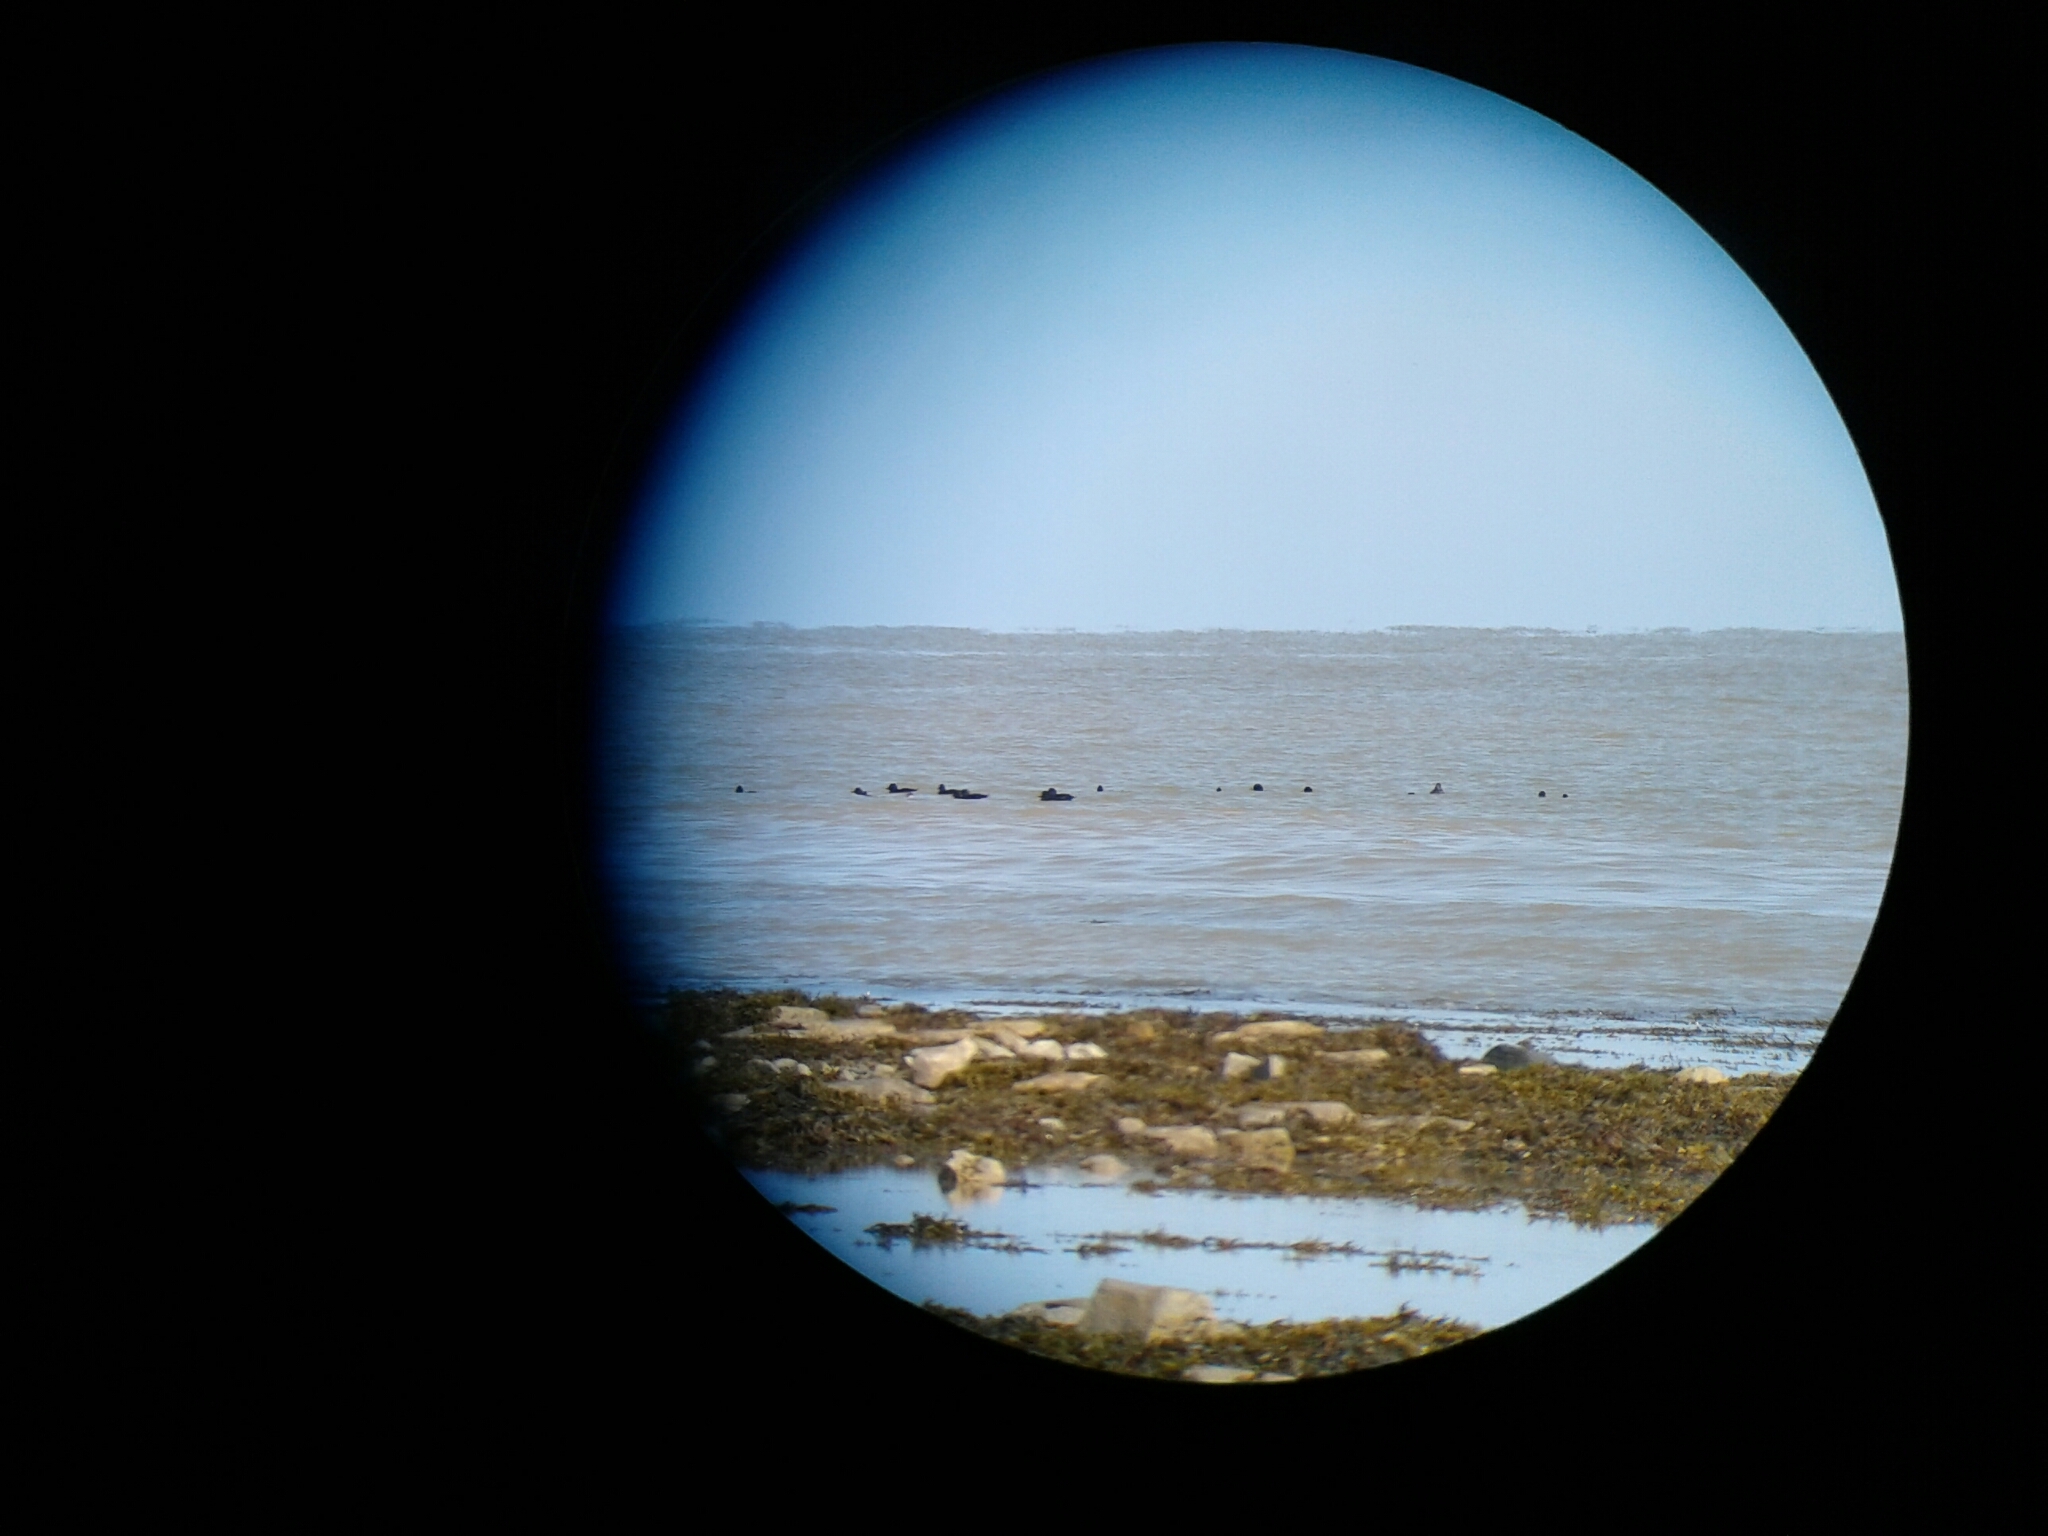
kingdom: Animalia
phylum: Chordata
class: Aves
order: Anseriformes
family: Anatidae
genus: Melanitta
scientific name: Melanitta americana
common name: Black scoter
